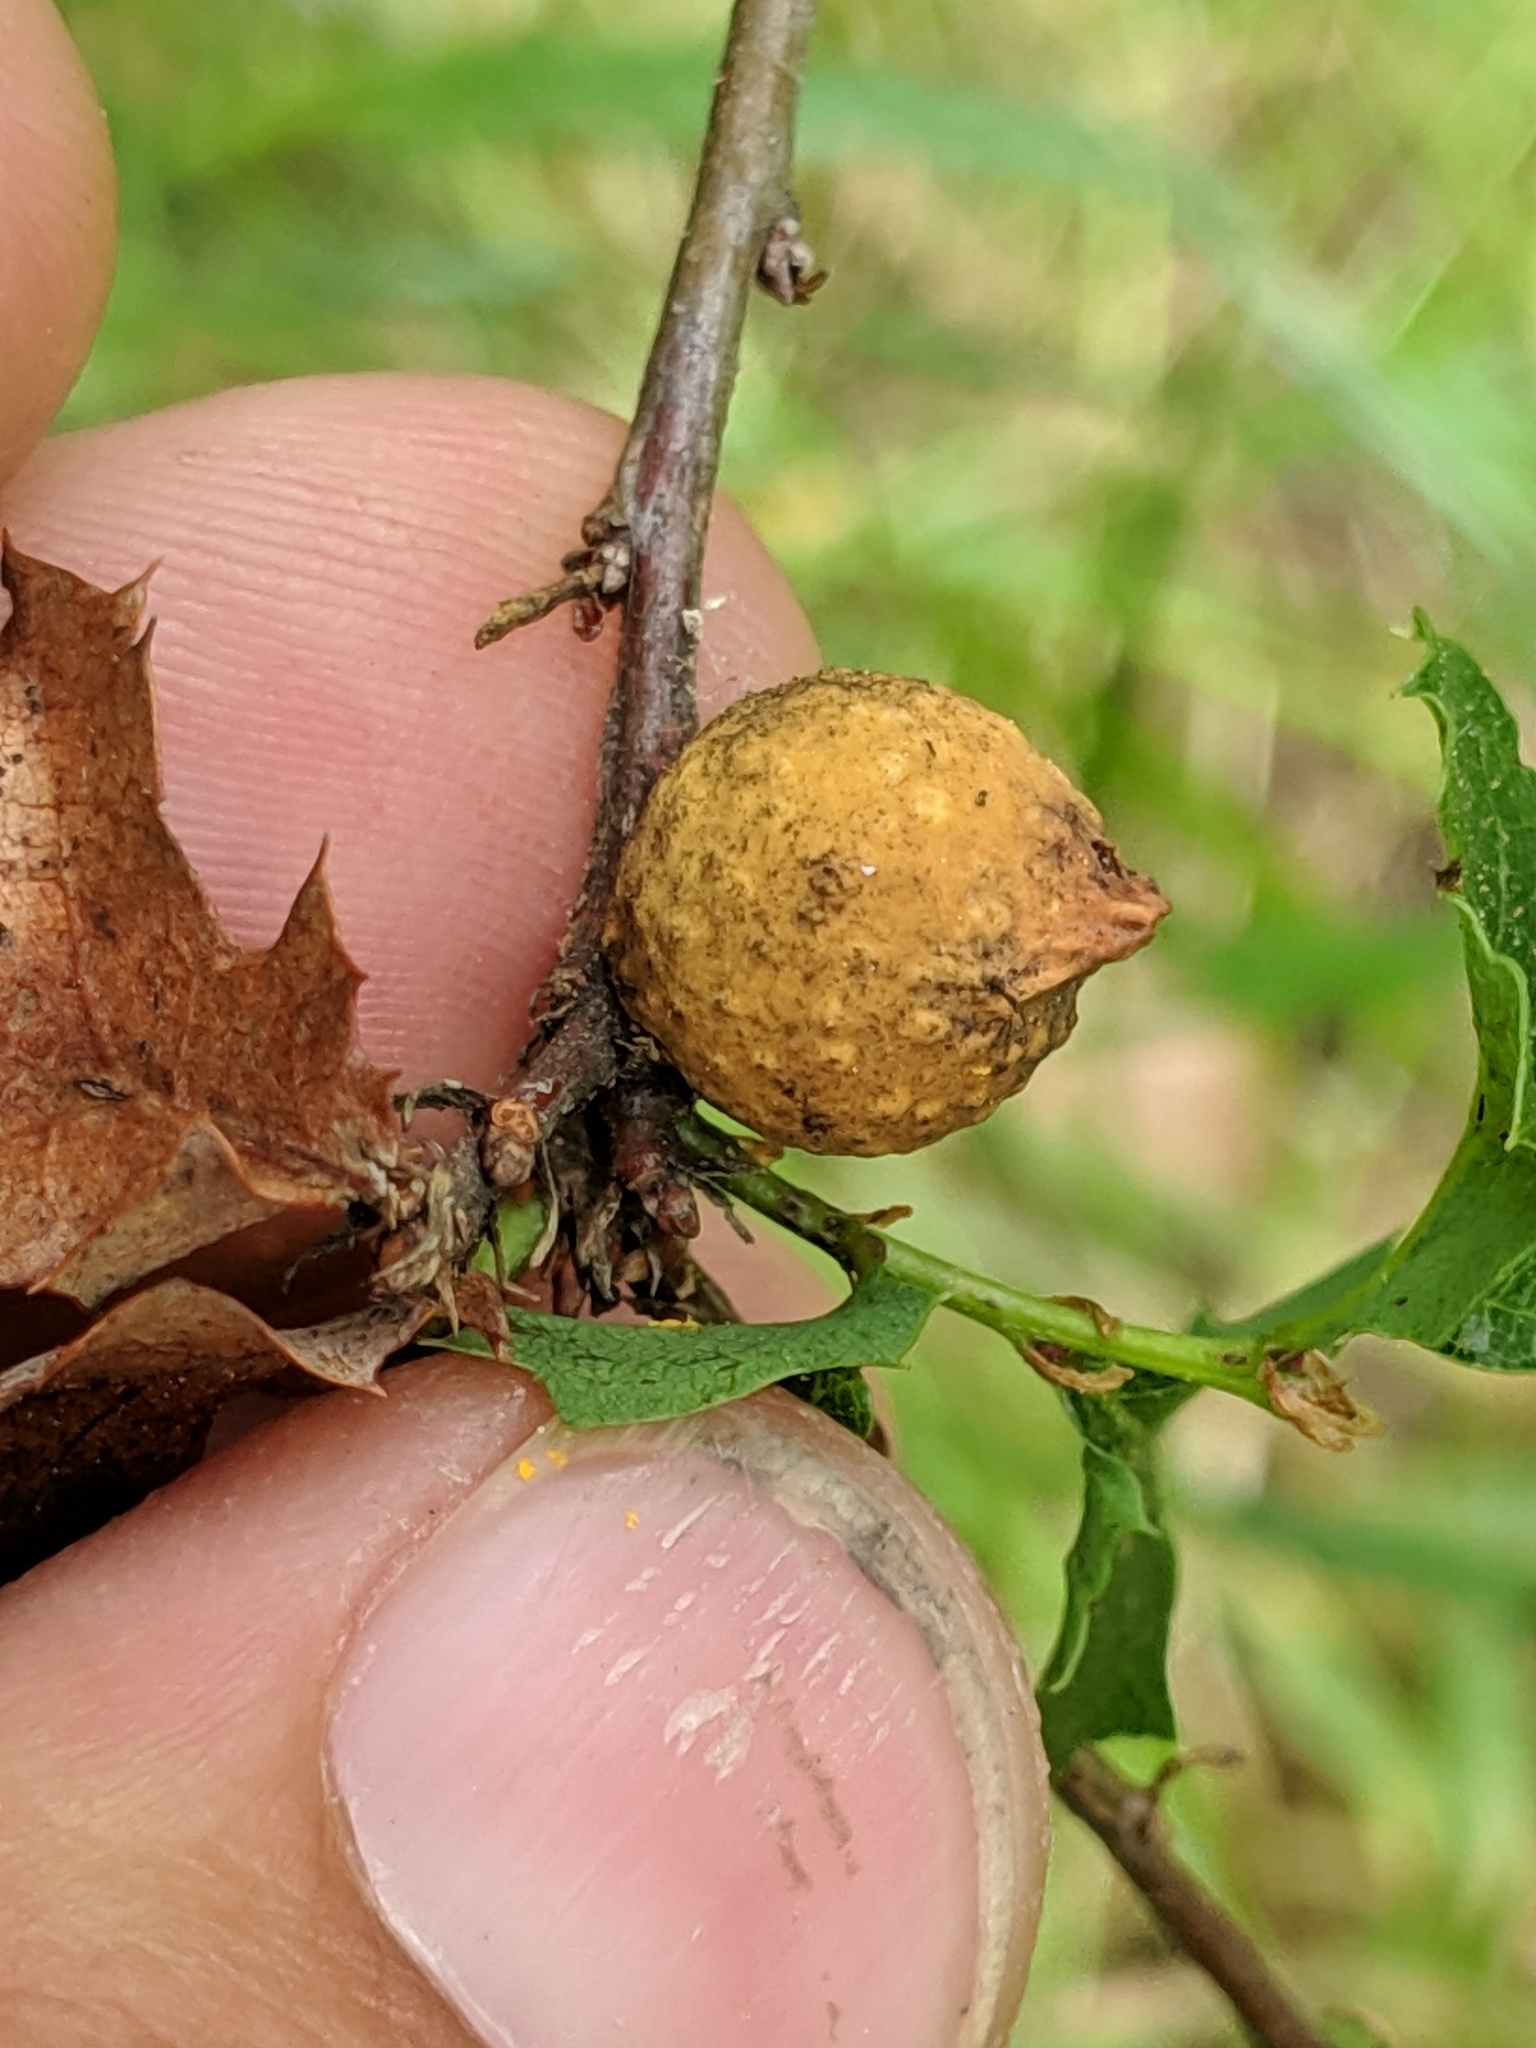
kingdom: Animalia
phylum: Arthropoda
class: Insecta
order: Hymenoptera
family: Cynipidae
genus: Burnettweldia
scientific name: Burnettweldia
